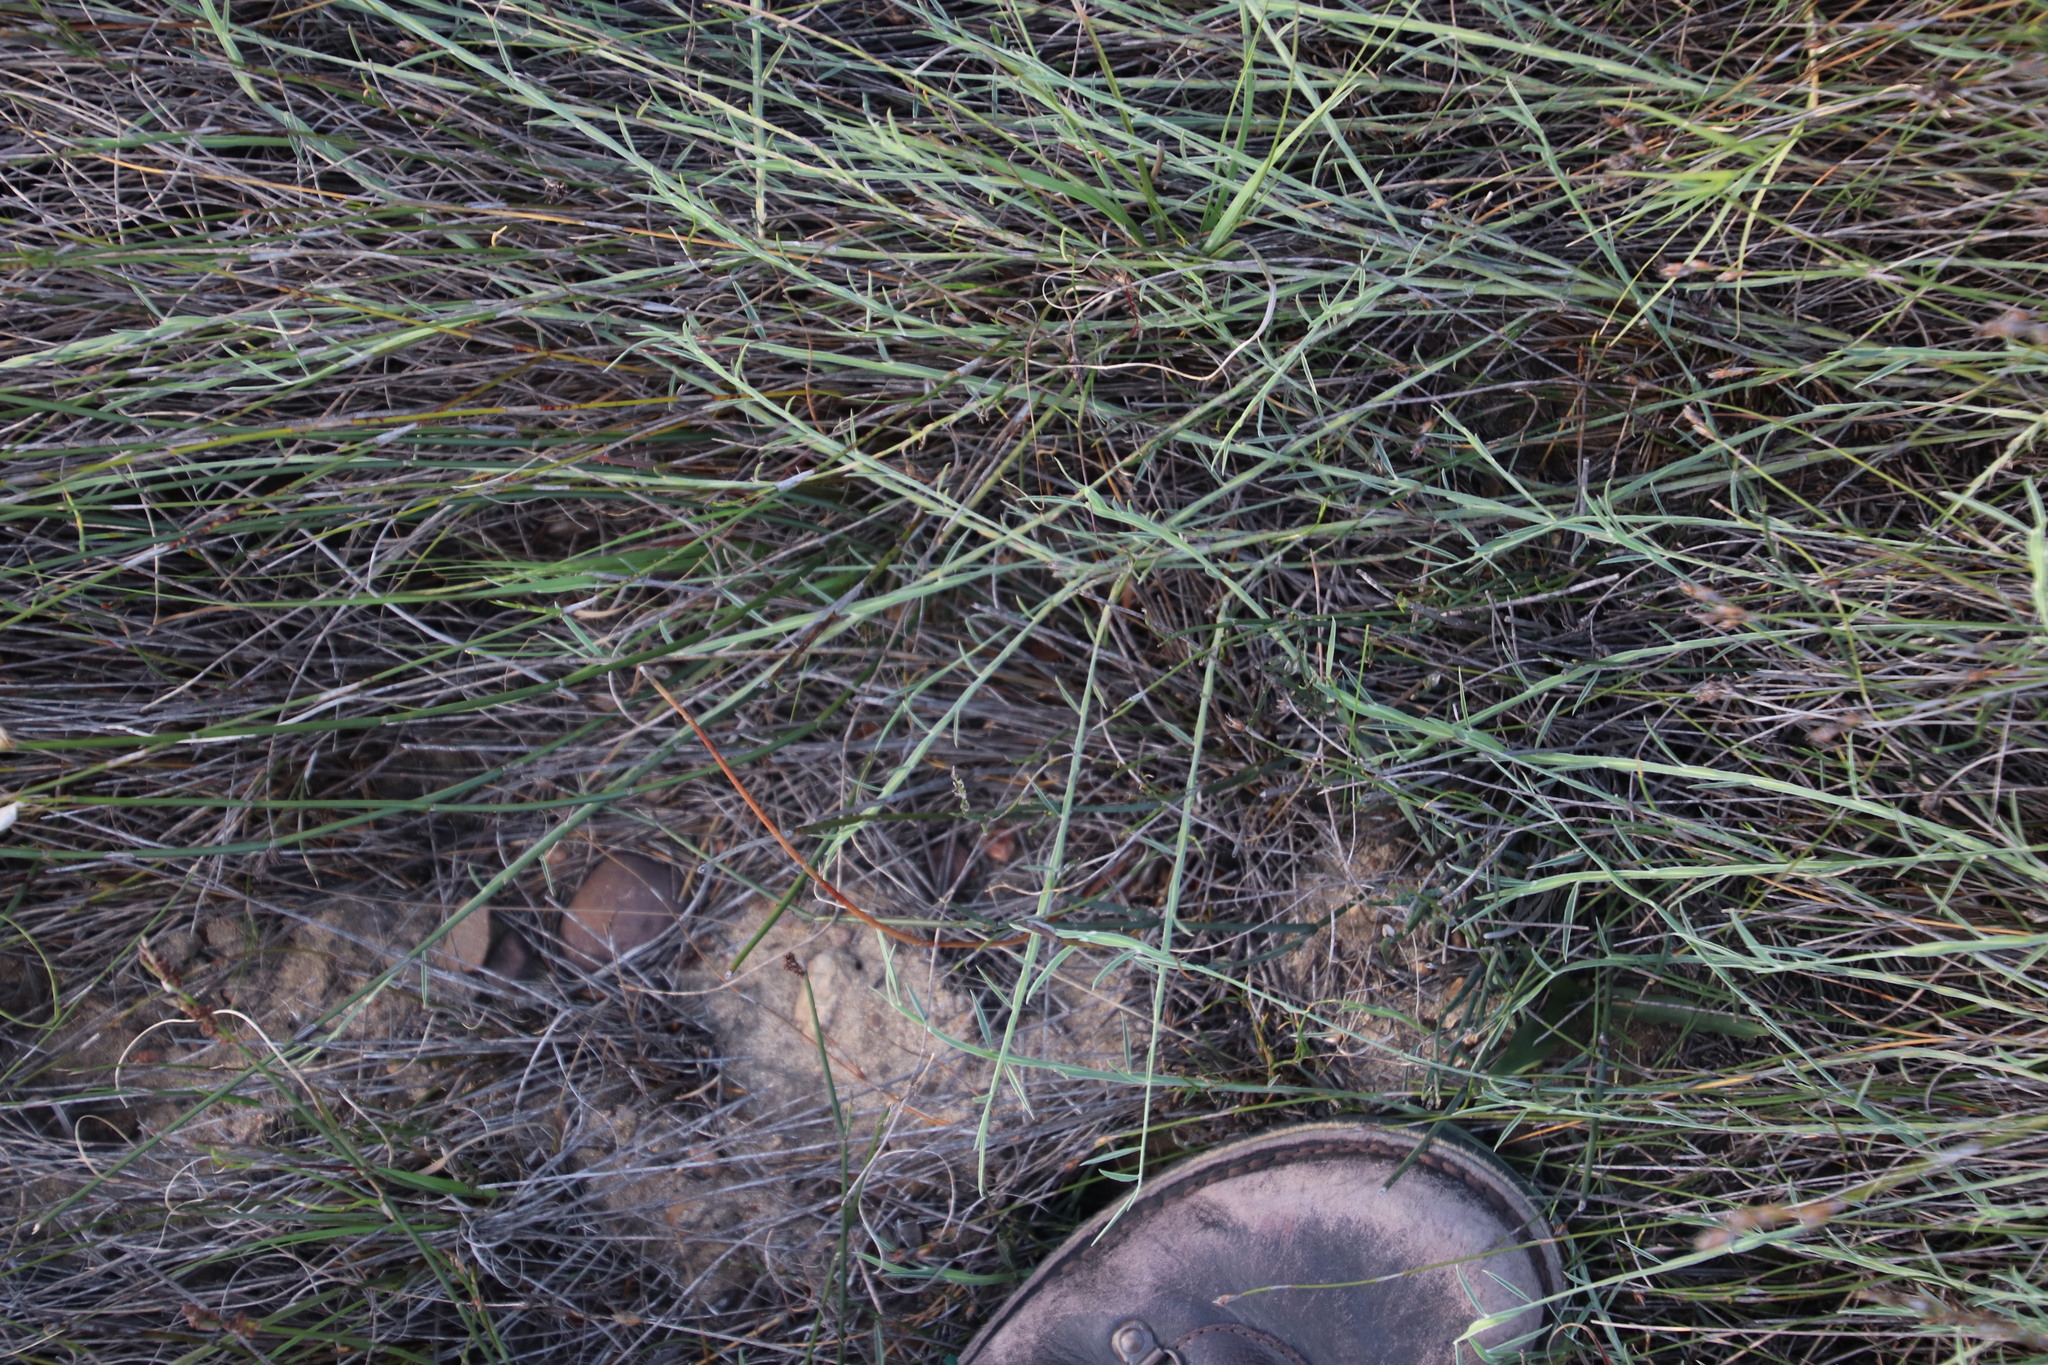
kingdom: Plantae
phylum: Tracheophyta
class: Magnoliopsida
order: Fabales
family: Fabaceae
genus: Psoralea
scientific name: Psoralea alata
